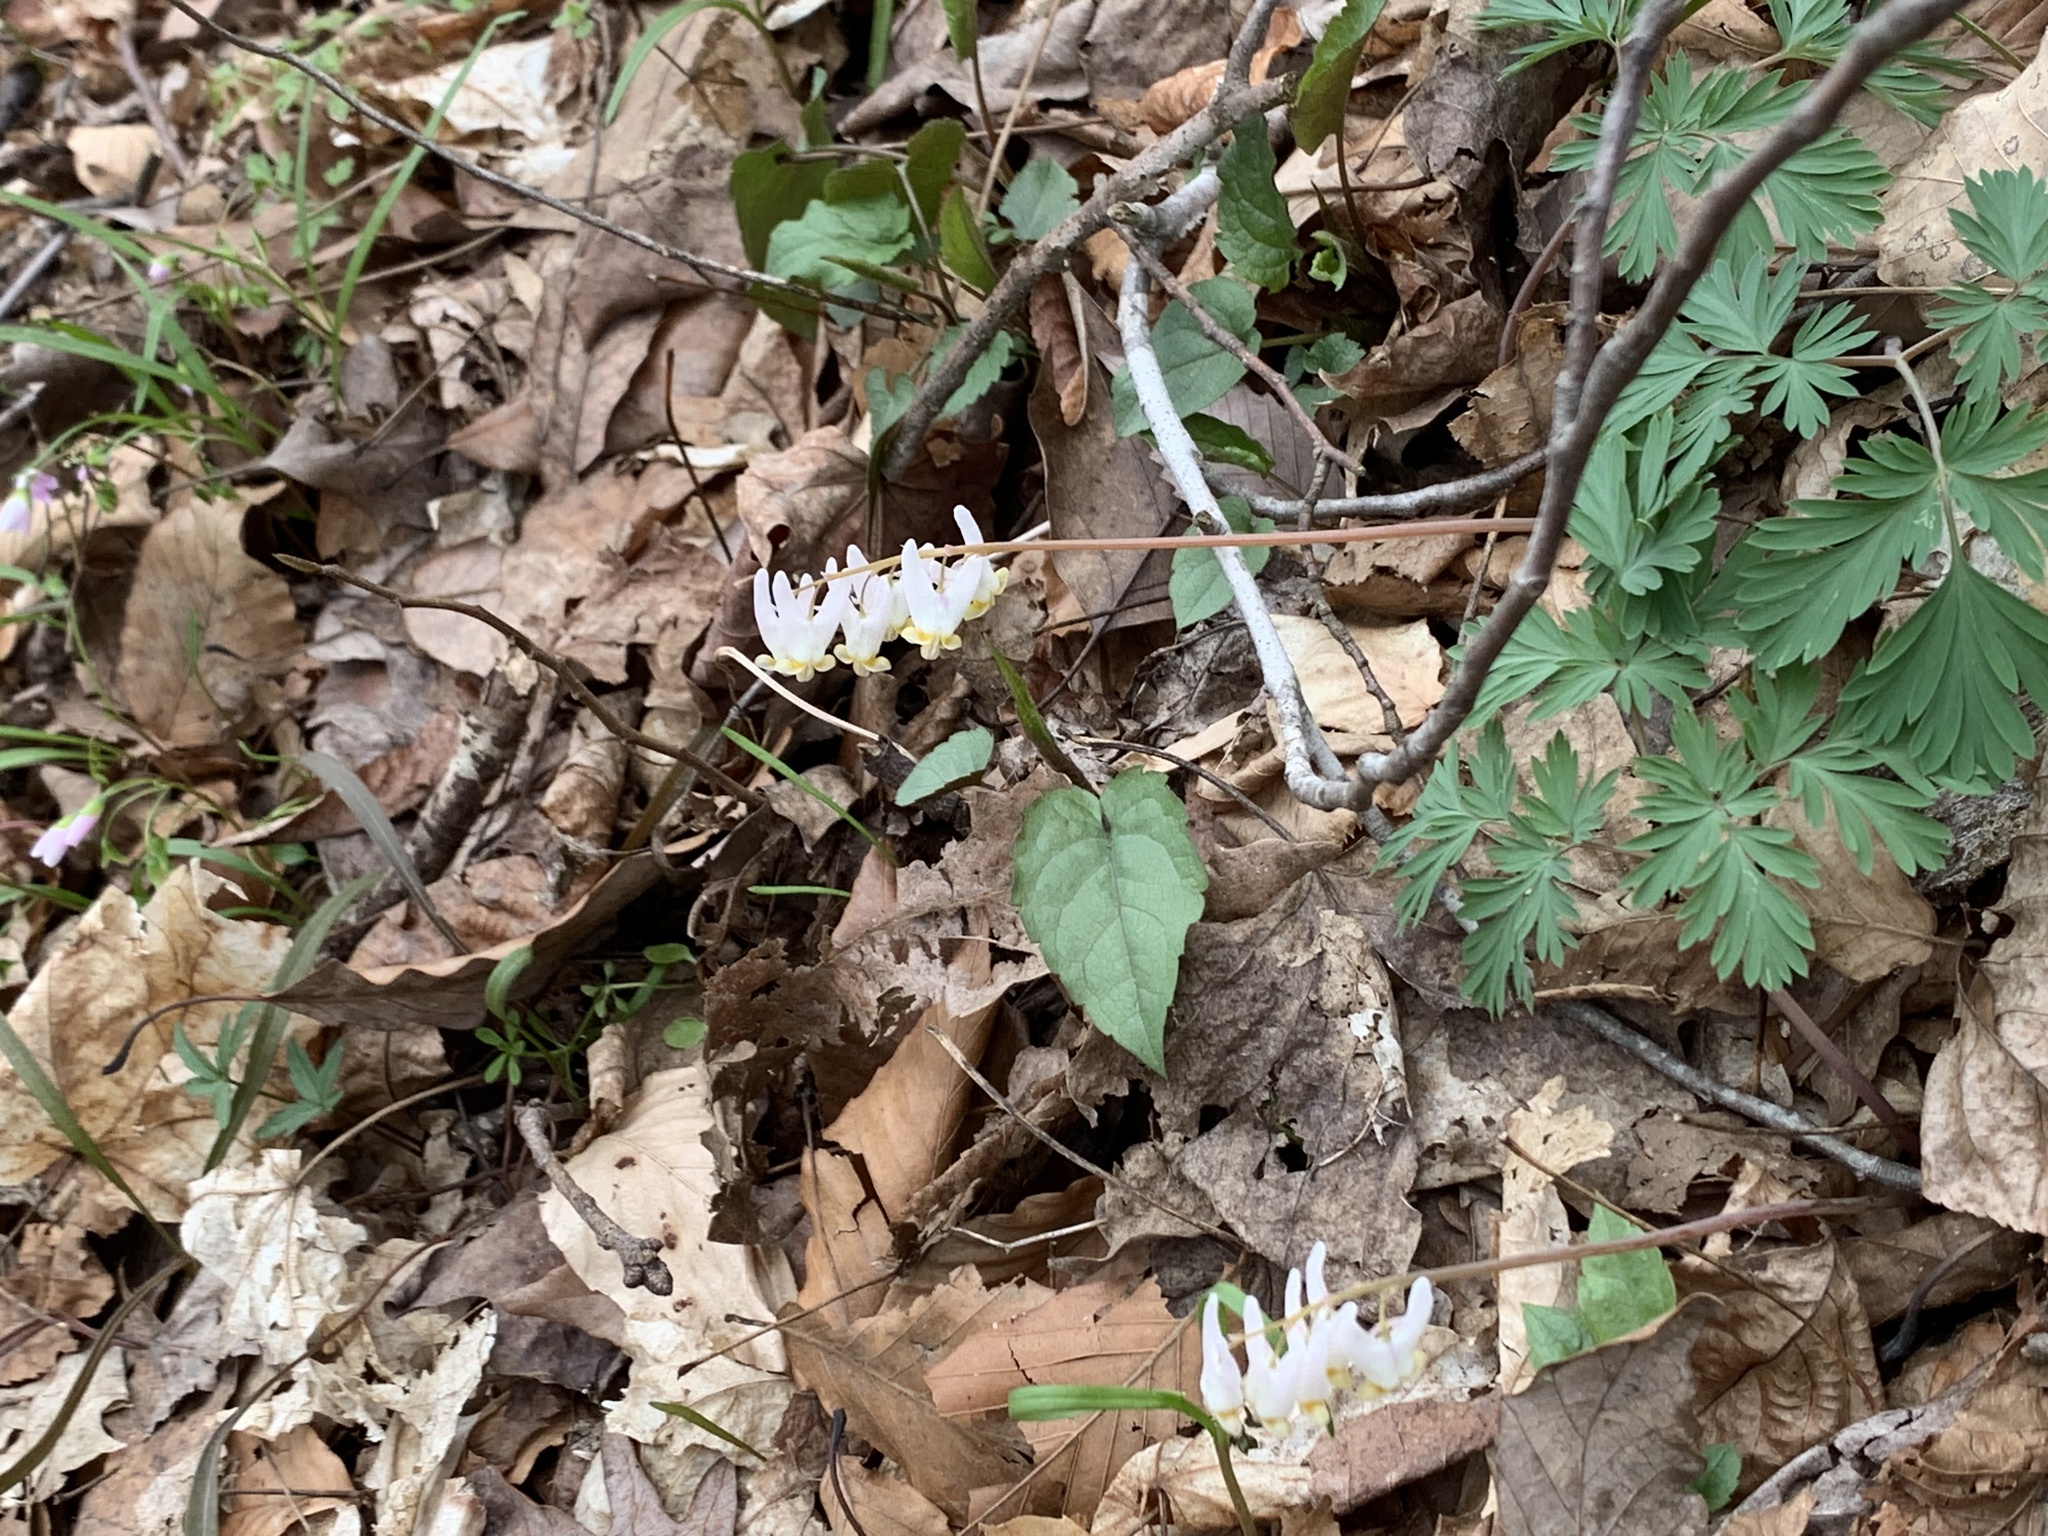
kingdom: Plantae
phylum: Tracheophyta
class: Magnoliopsida
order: Ranunculales
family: Papaveraceae
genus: Dicentra
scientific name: Dicentra cucullaria
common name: Dutchman's breeches
